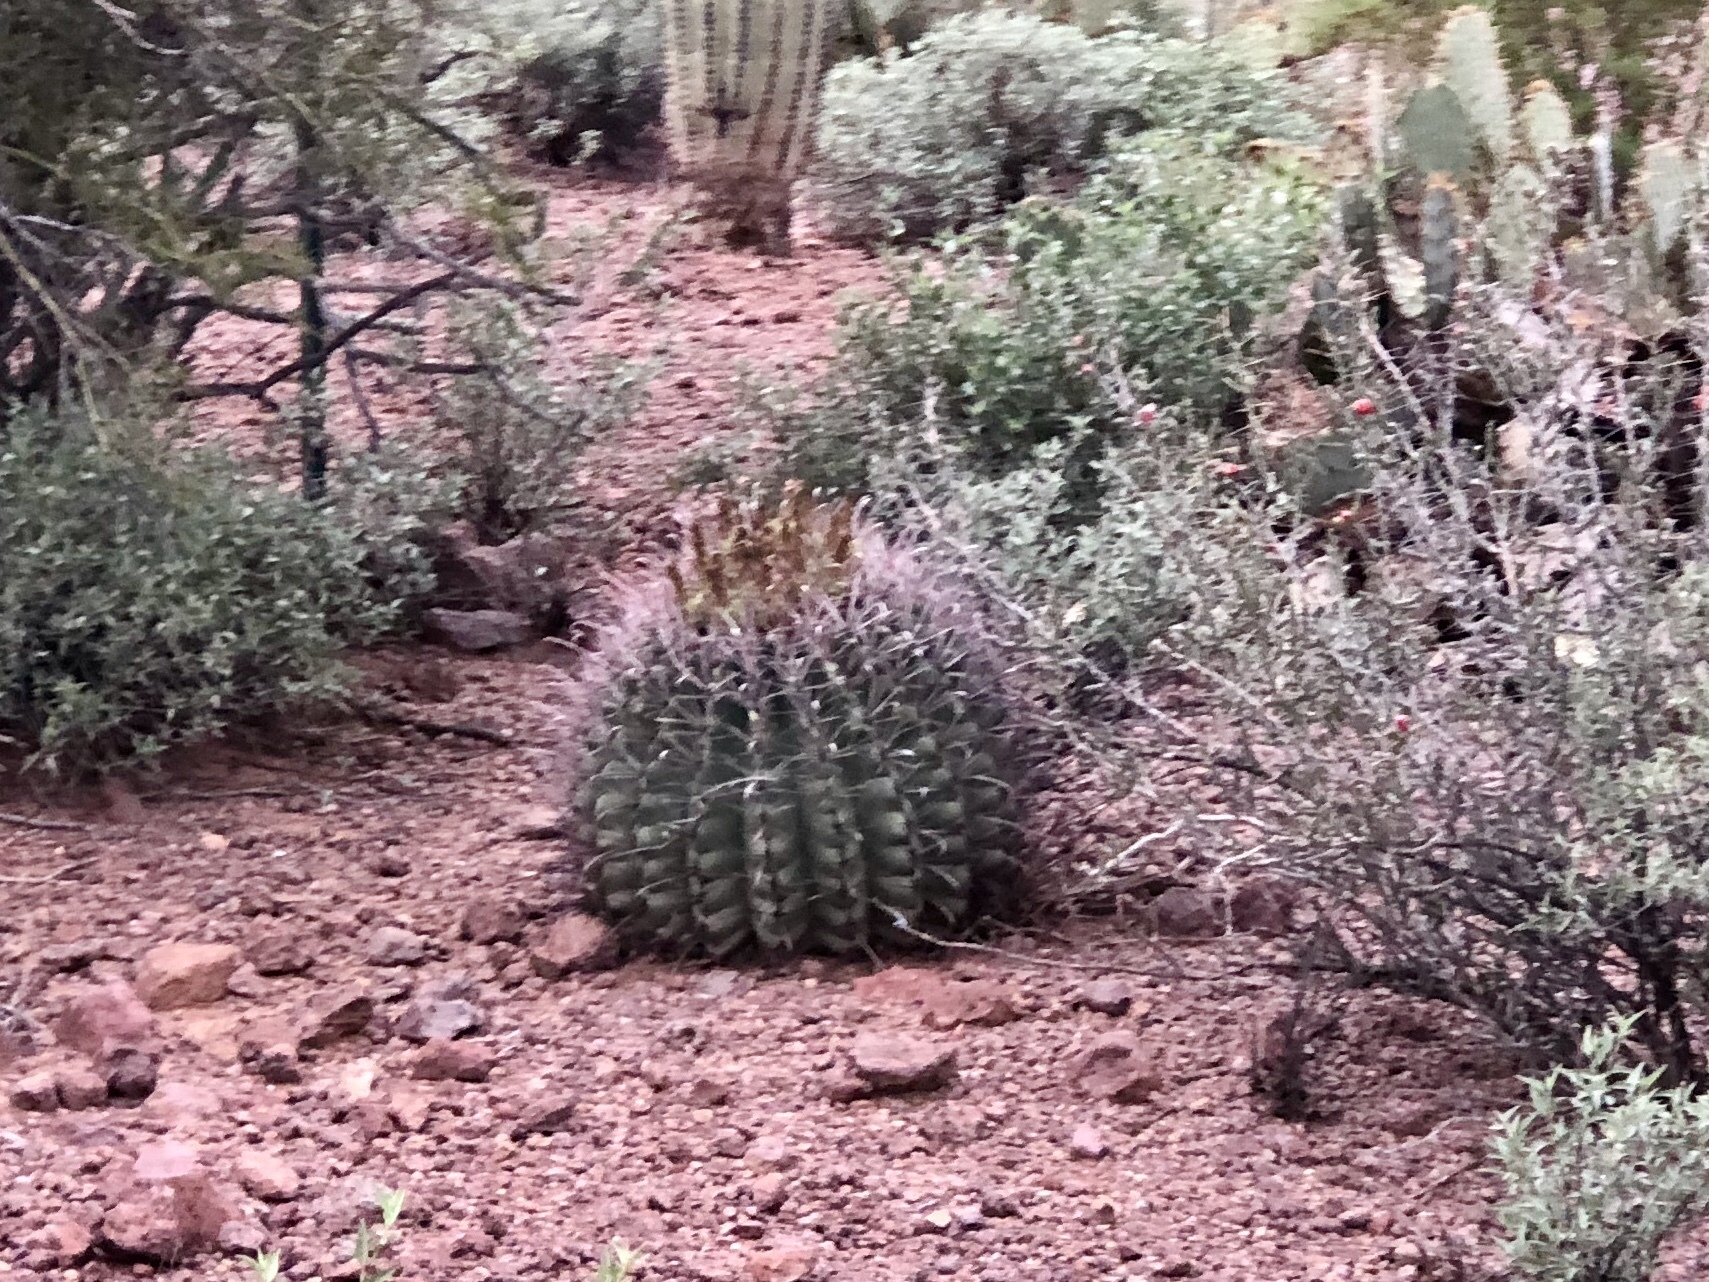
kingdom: Plantae
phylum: Tracheophyta
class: Magnoliopsida
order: Caryophyllales
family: Cactaceae
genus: Ferocactus
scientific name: Ferocactus wislizeni
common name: Candy barrel cactus
